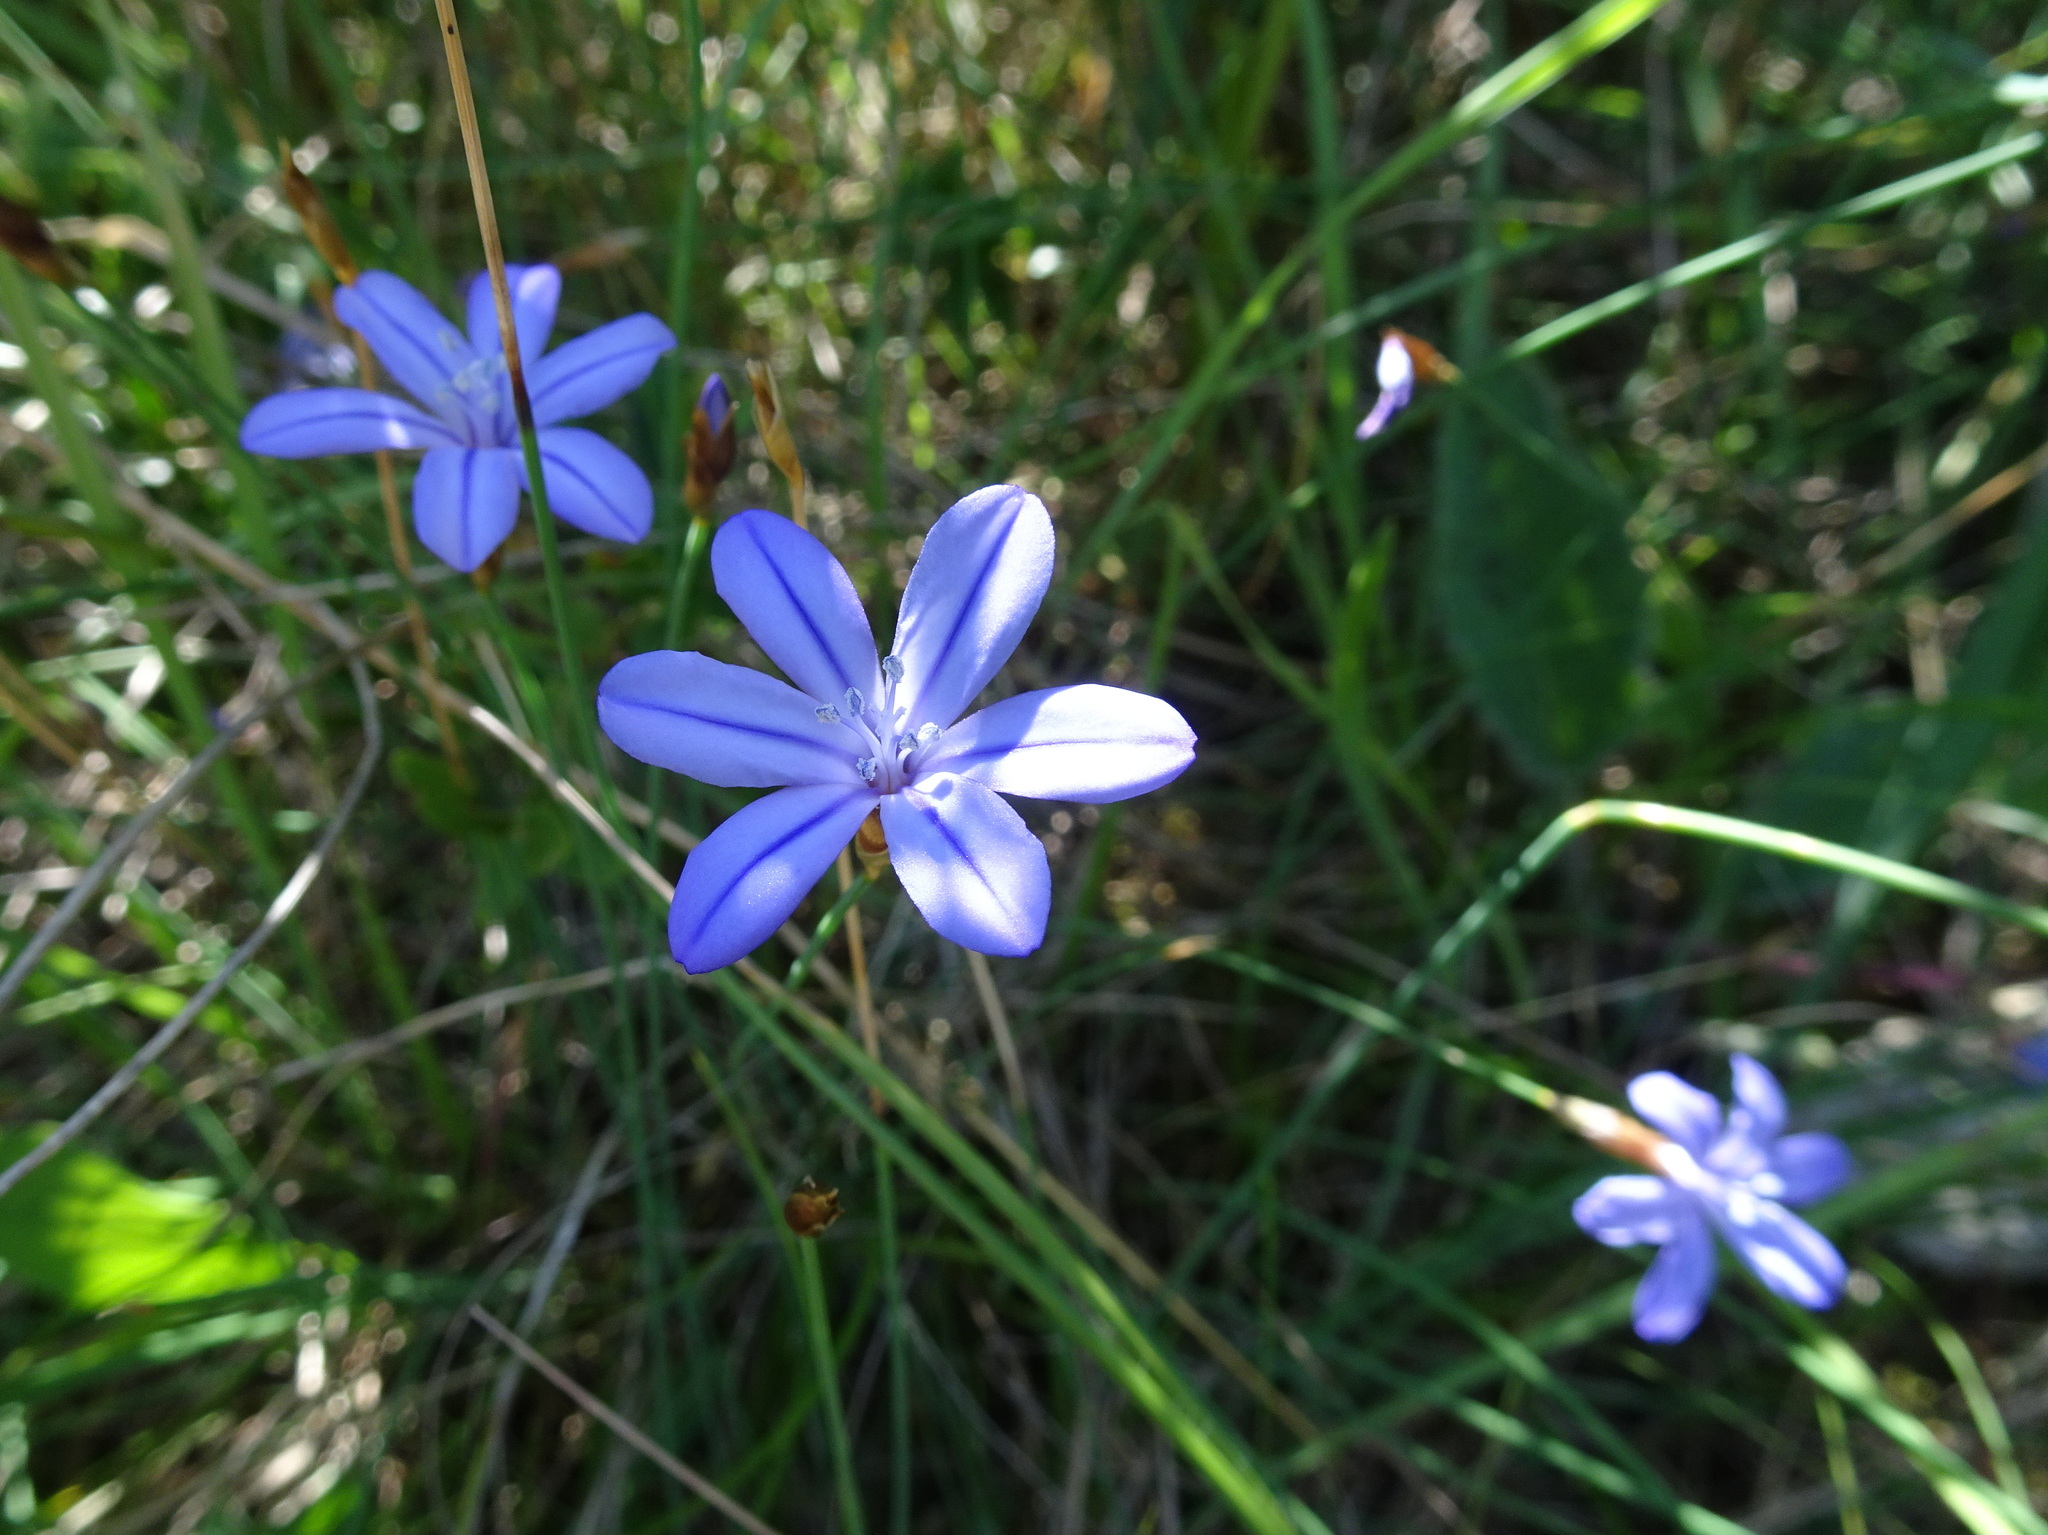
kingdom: Plantae
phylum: Tracheophyta
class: Liliopsida
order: Asparagales
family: Asparagaceae
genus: Aphyllanthes
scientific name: Aphyllanthes monspeliensis
